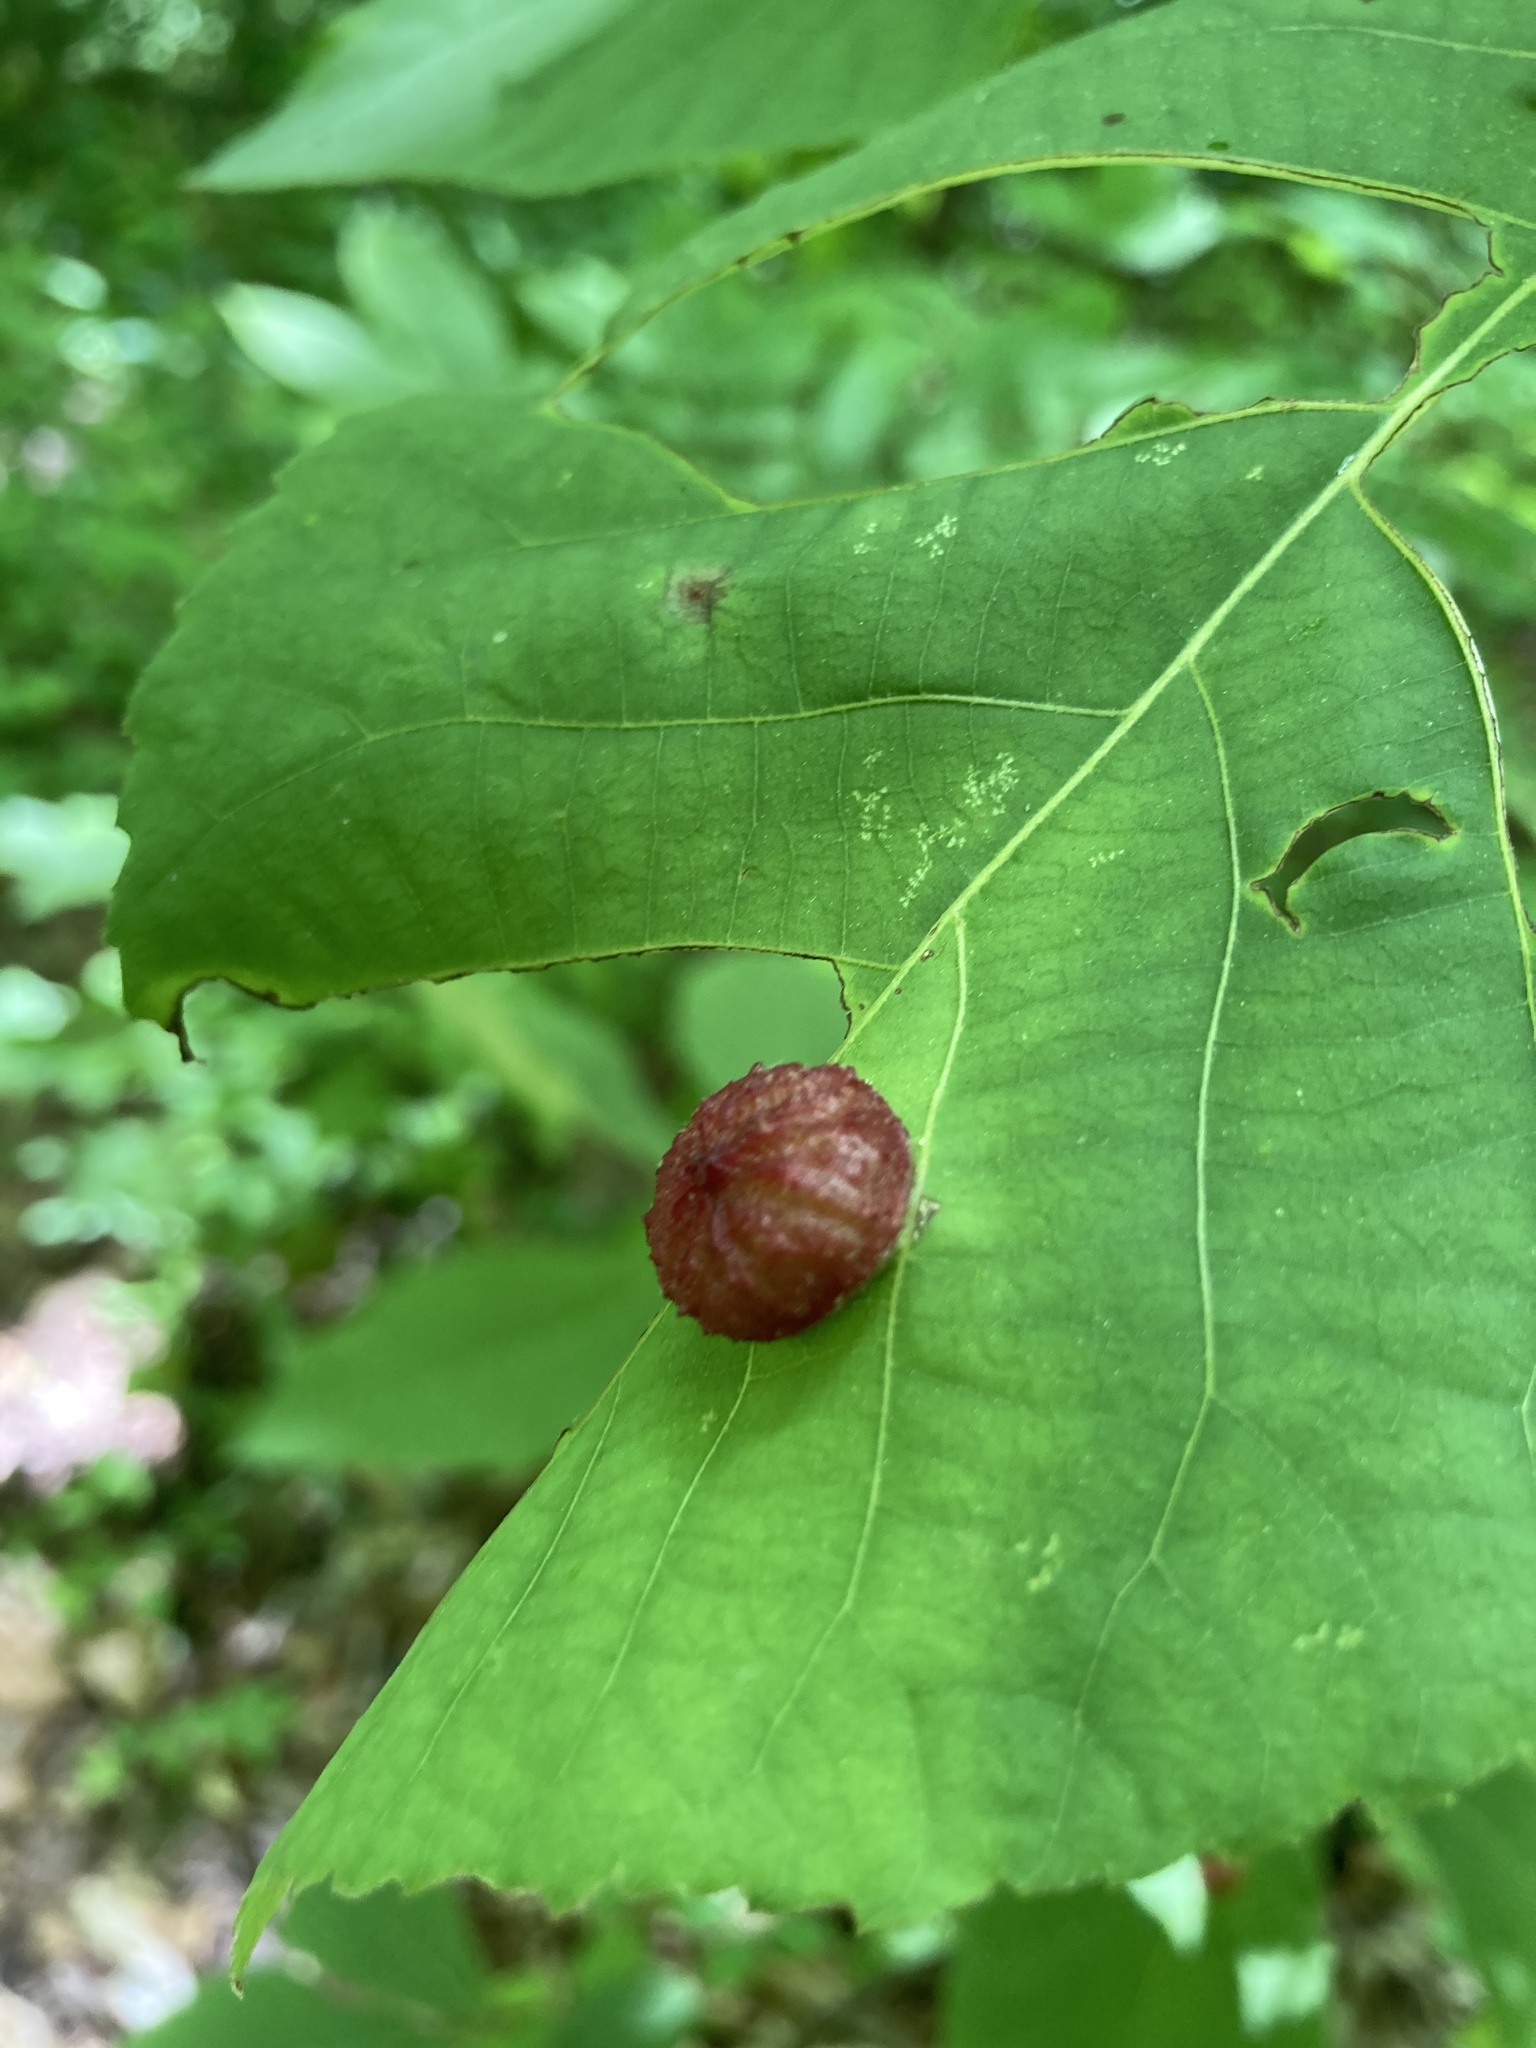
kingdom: Animalia
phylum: Arthropoda
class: Insecta
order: Hemiptera
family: Phylloxeridae
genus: Daktulosphaira
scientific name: Daktulosphaira conicum
